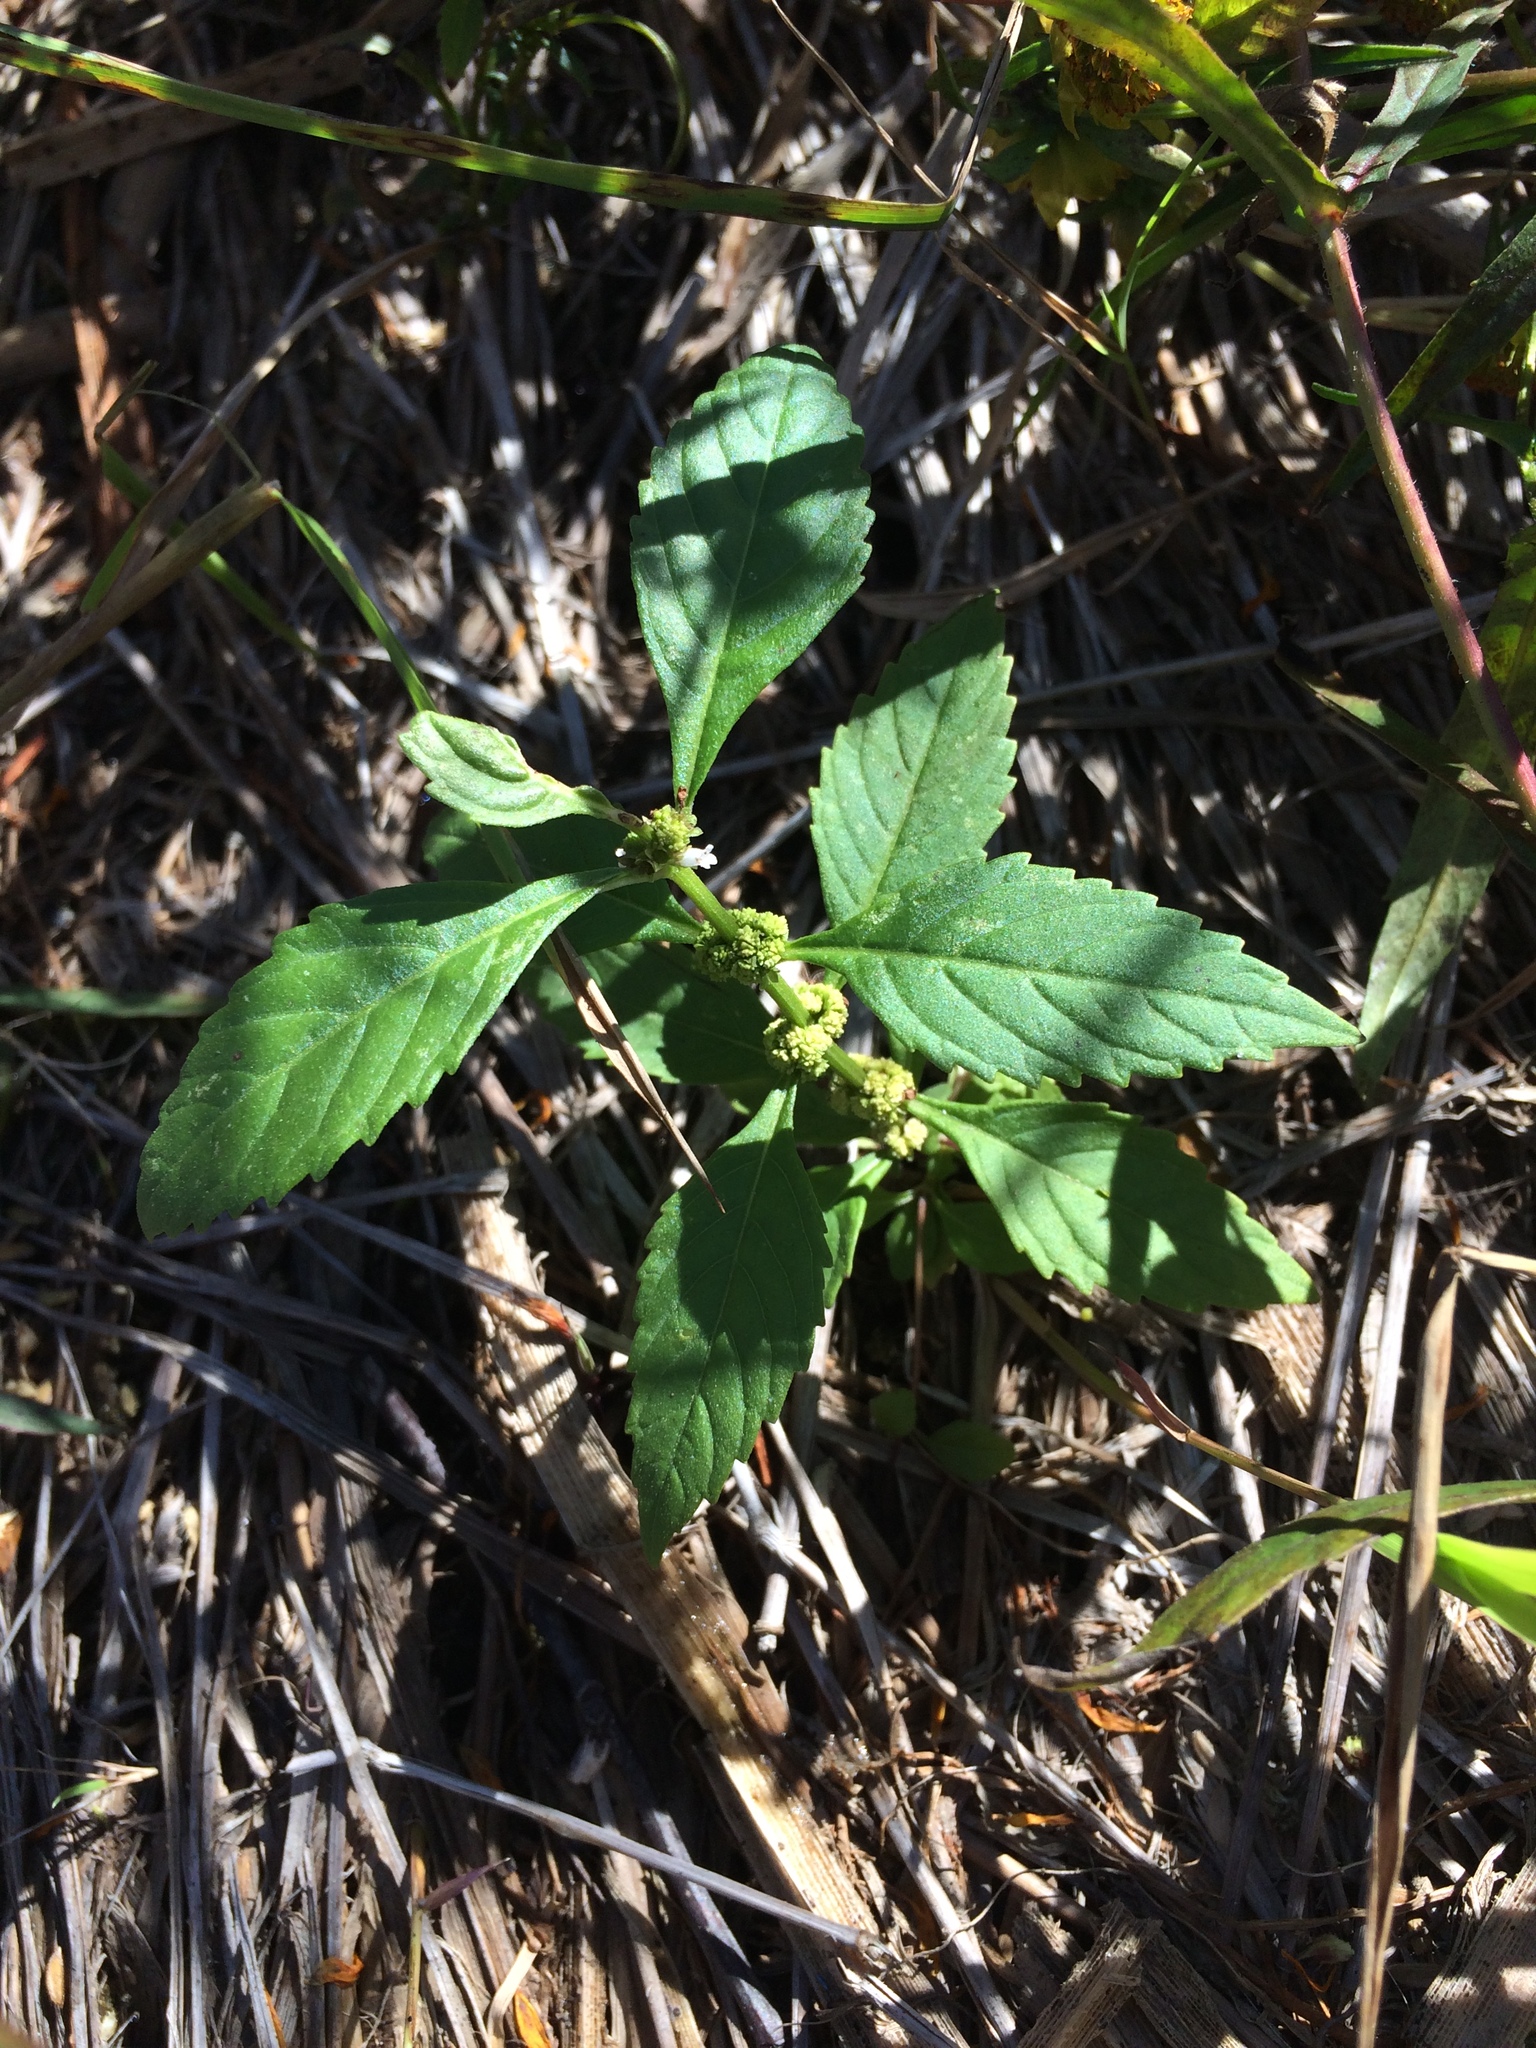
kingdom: Plantae
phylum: Tracheophyta
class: Magnoliopsida
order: Lamiales
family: Lamiaceae
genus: Lycopus
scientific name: Lycopus virginicus
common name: Bugleweed
